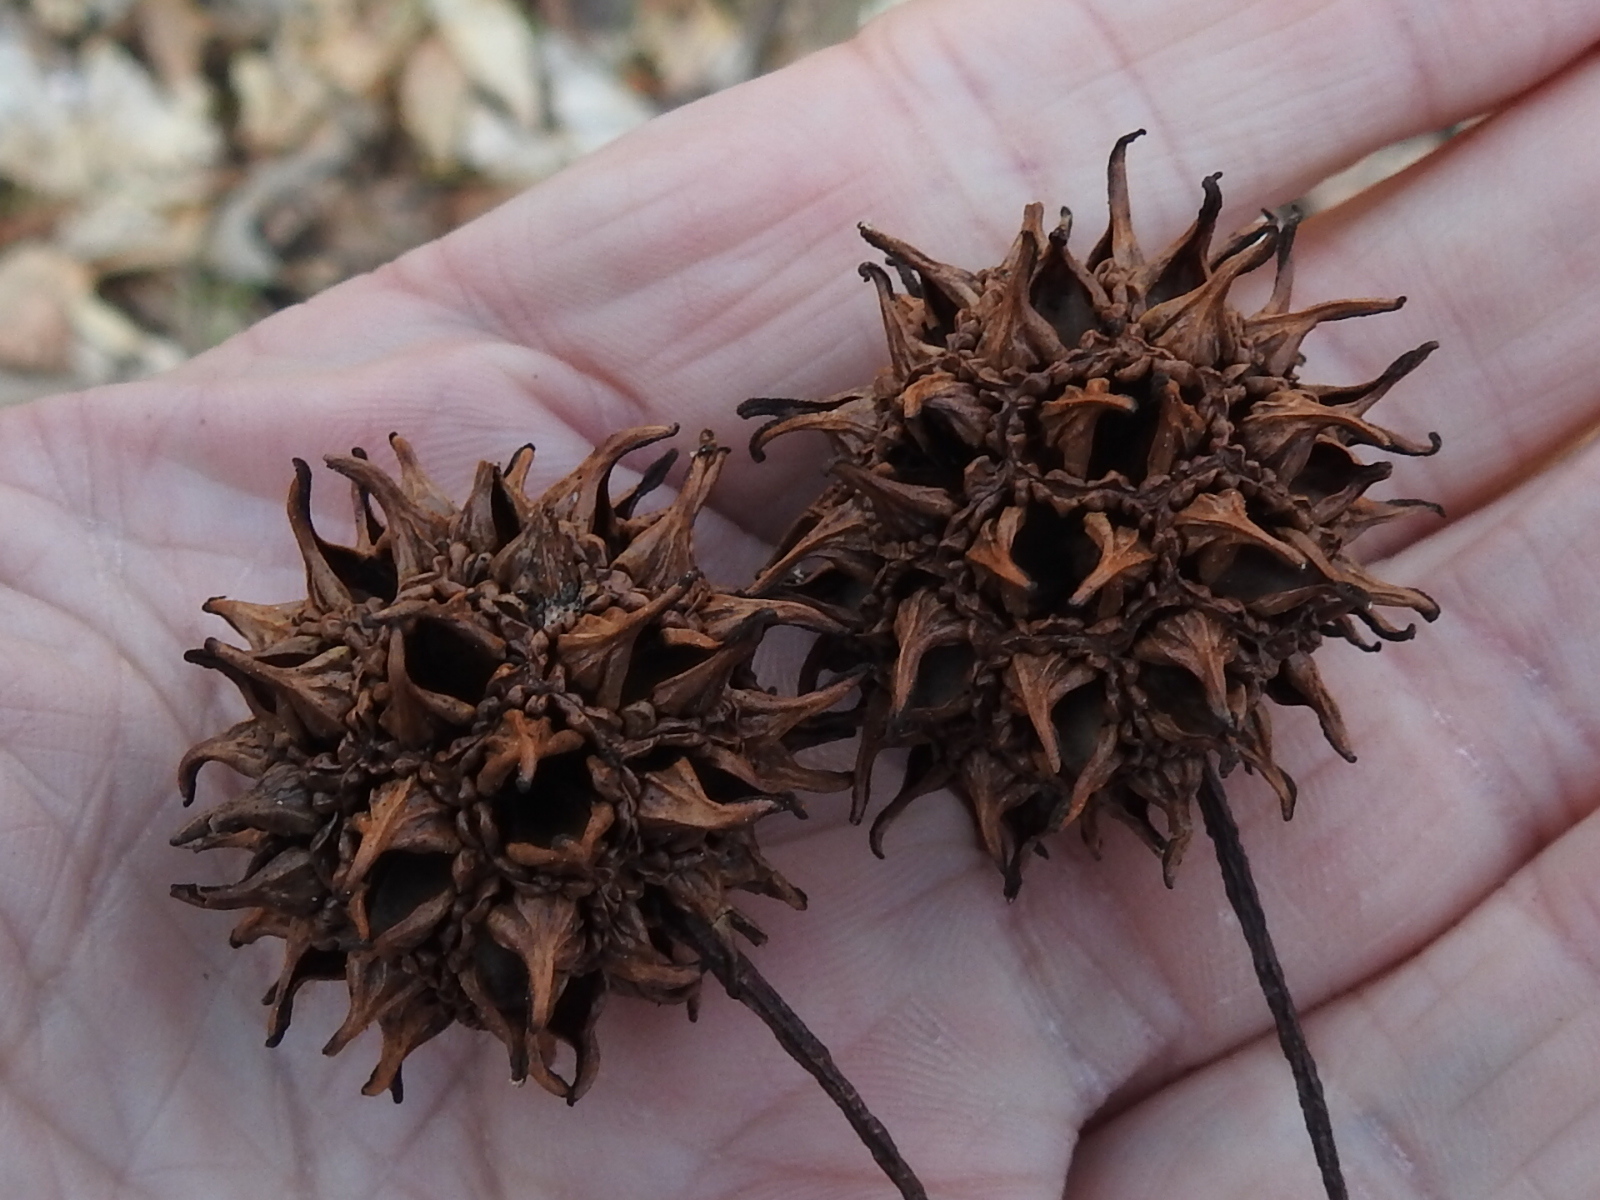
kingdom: Plantae
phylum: Tracheophyta
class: Magnoliopsida
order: Saxifragales
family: Altingiaceae
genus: Liquidambar
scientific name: Liquidambar styraciflua
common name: Sweet gum
